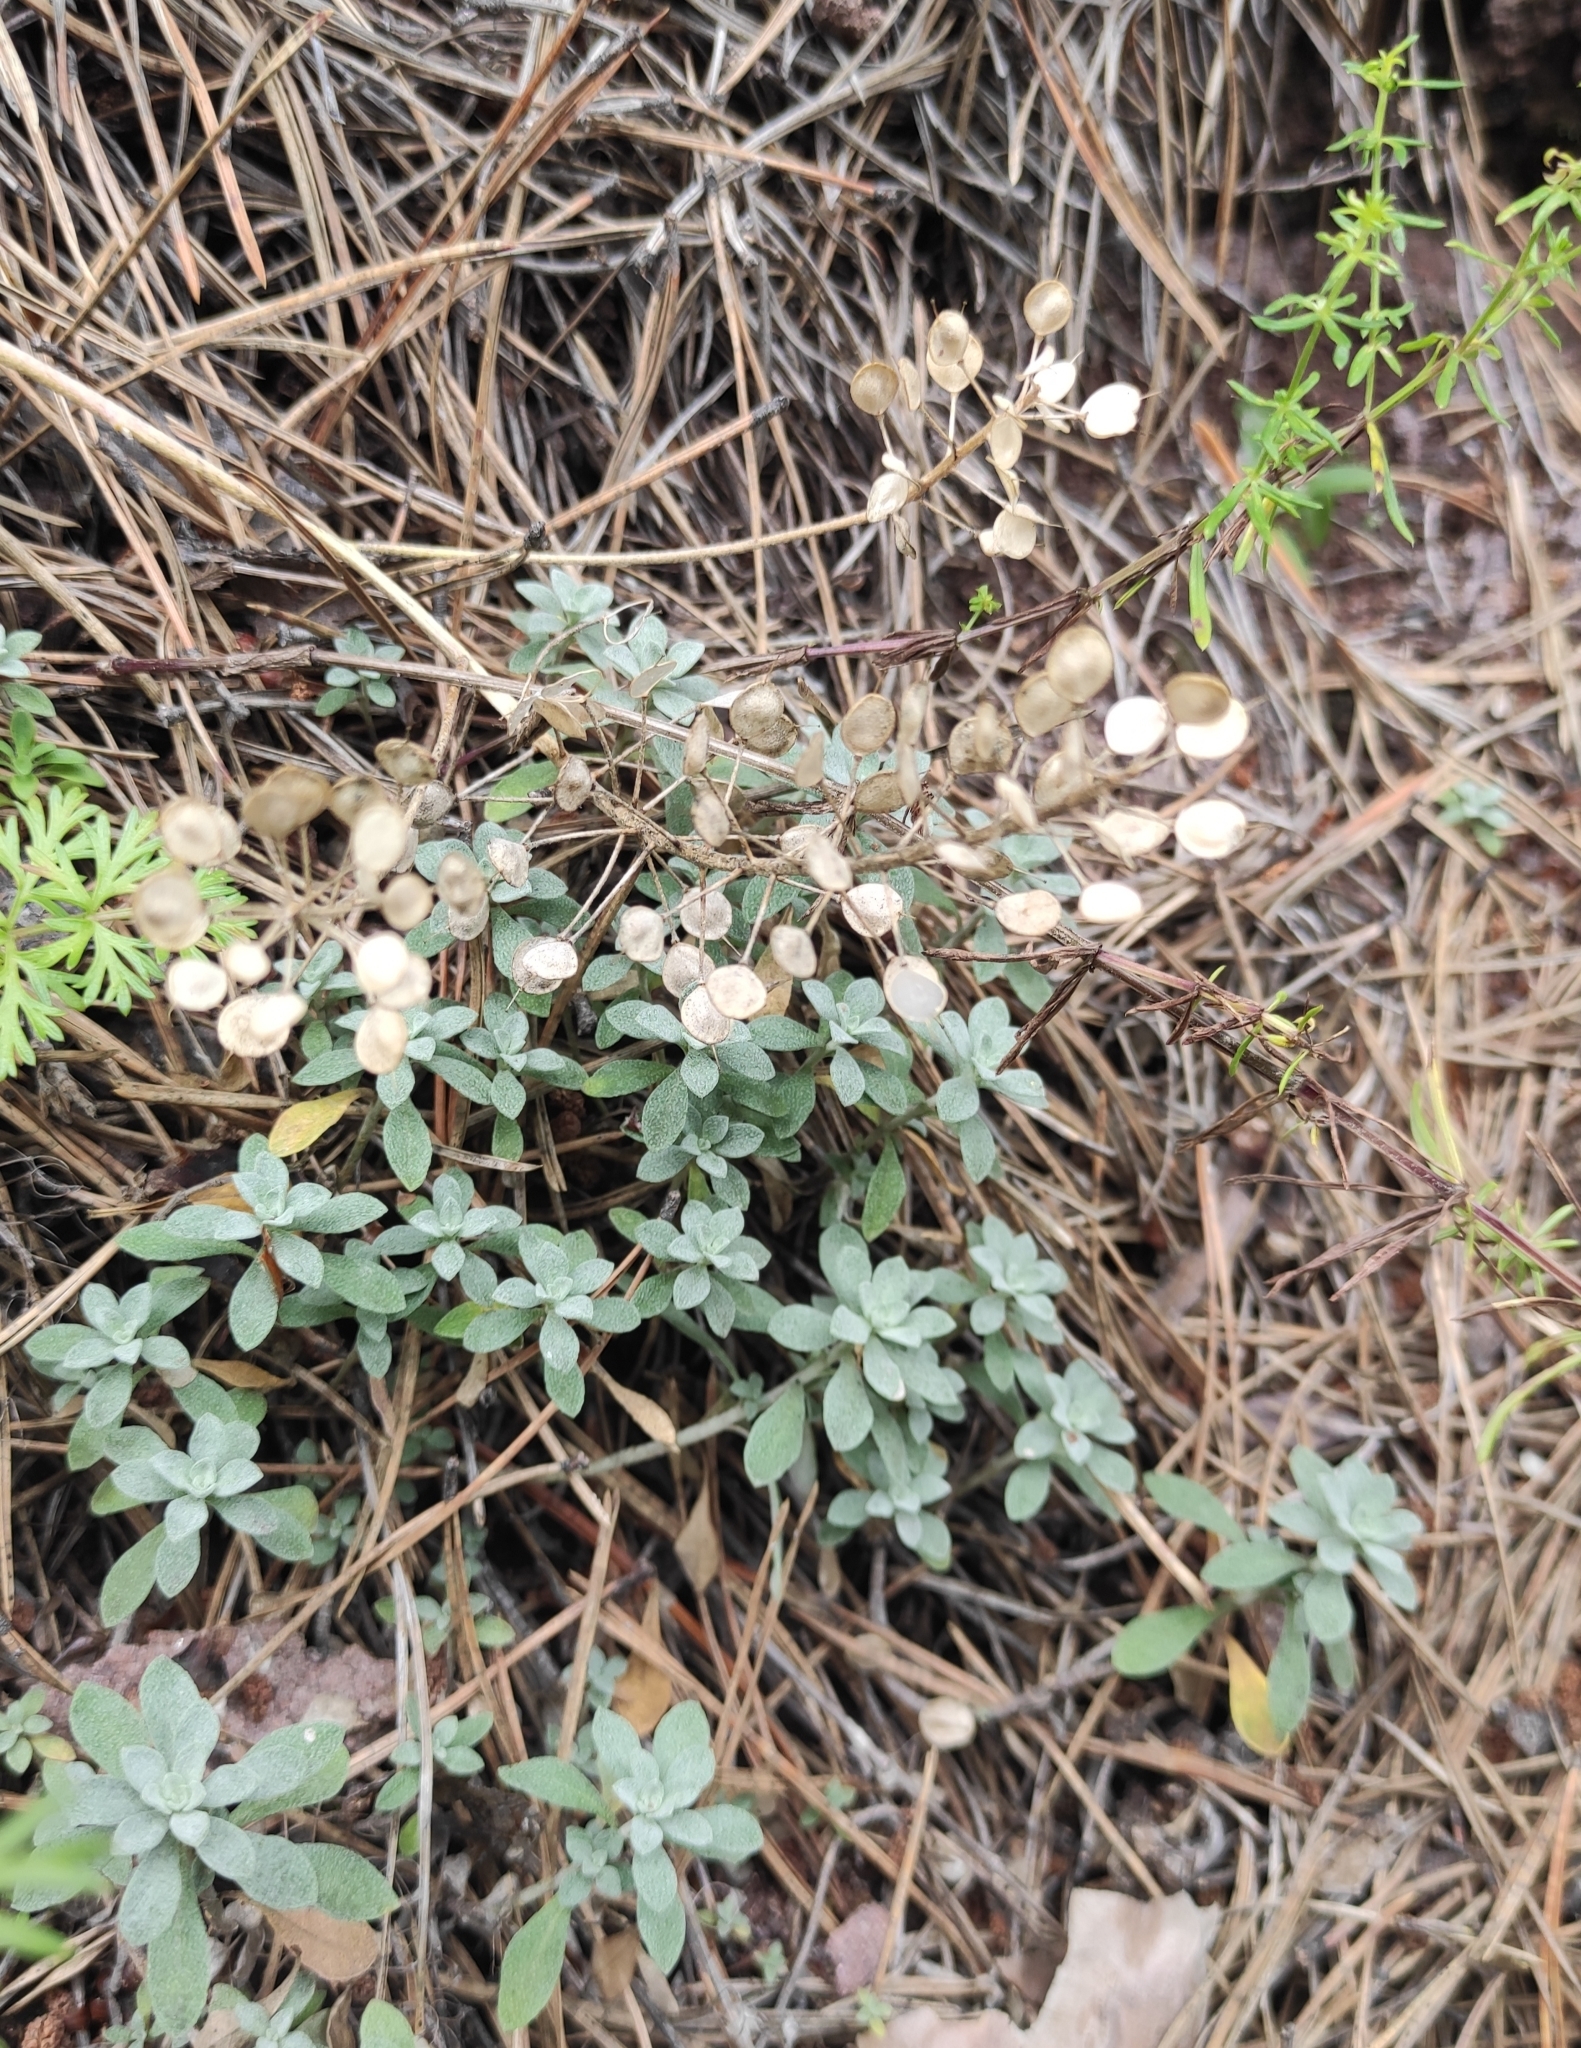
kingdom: Plantae
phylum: Tracheophyta
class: Magnoliopsida
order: Brassicales
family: Brassicaceae
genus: Odontarrhena
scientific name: Odontarrhena obovata
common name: American alyssum
